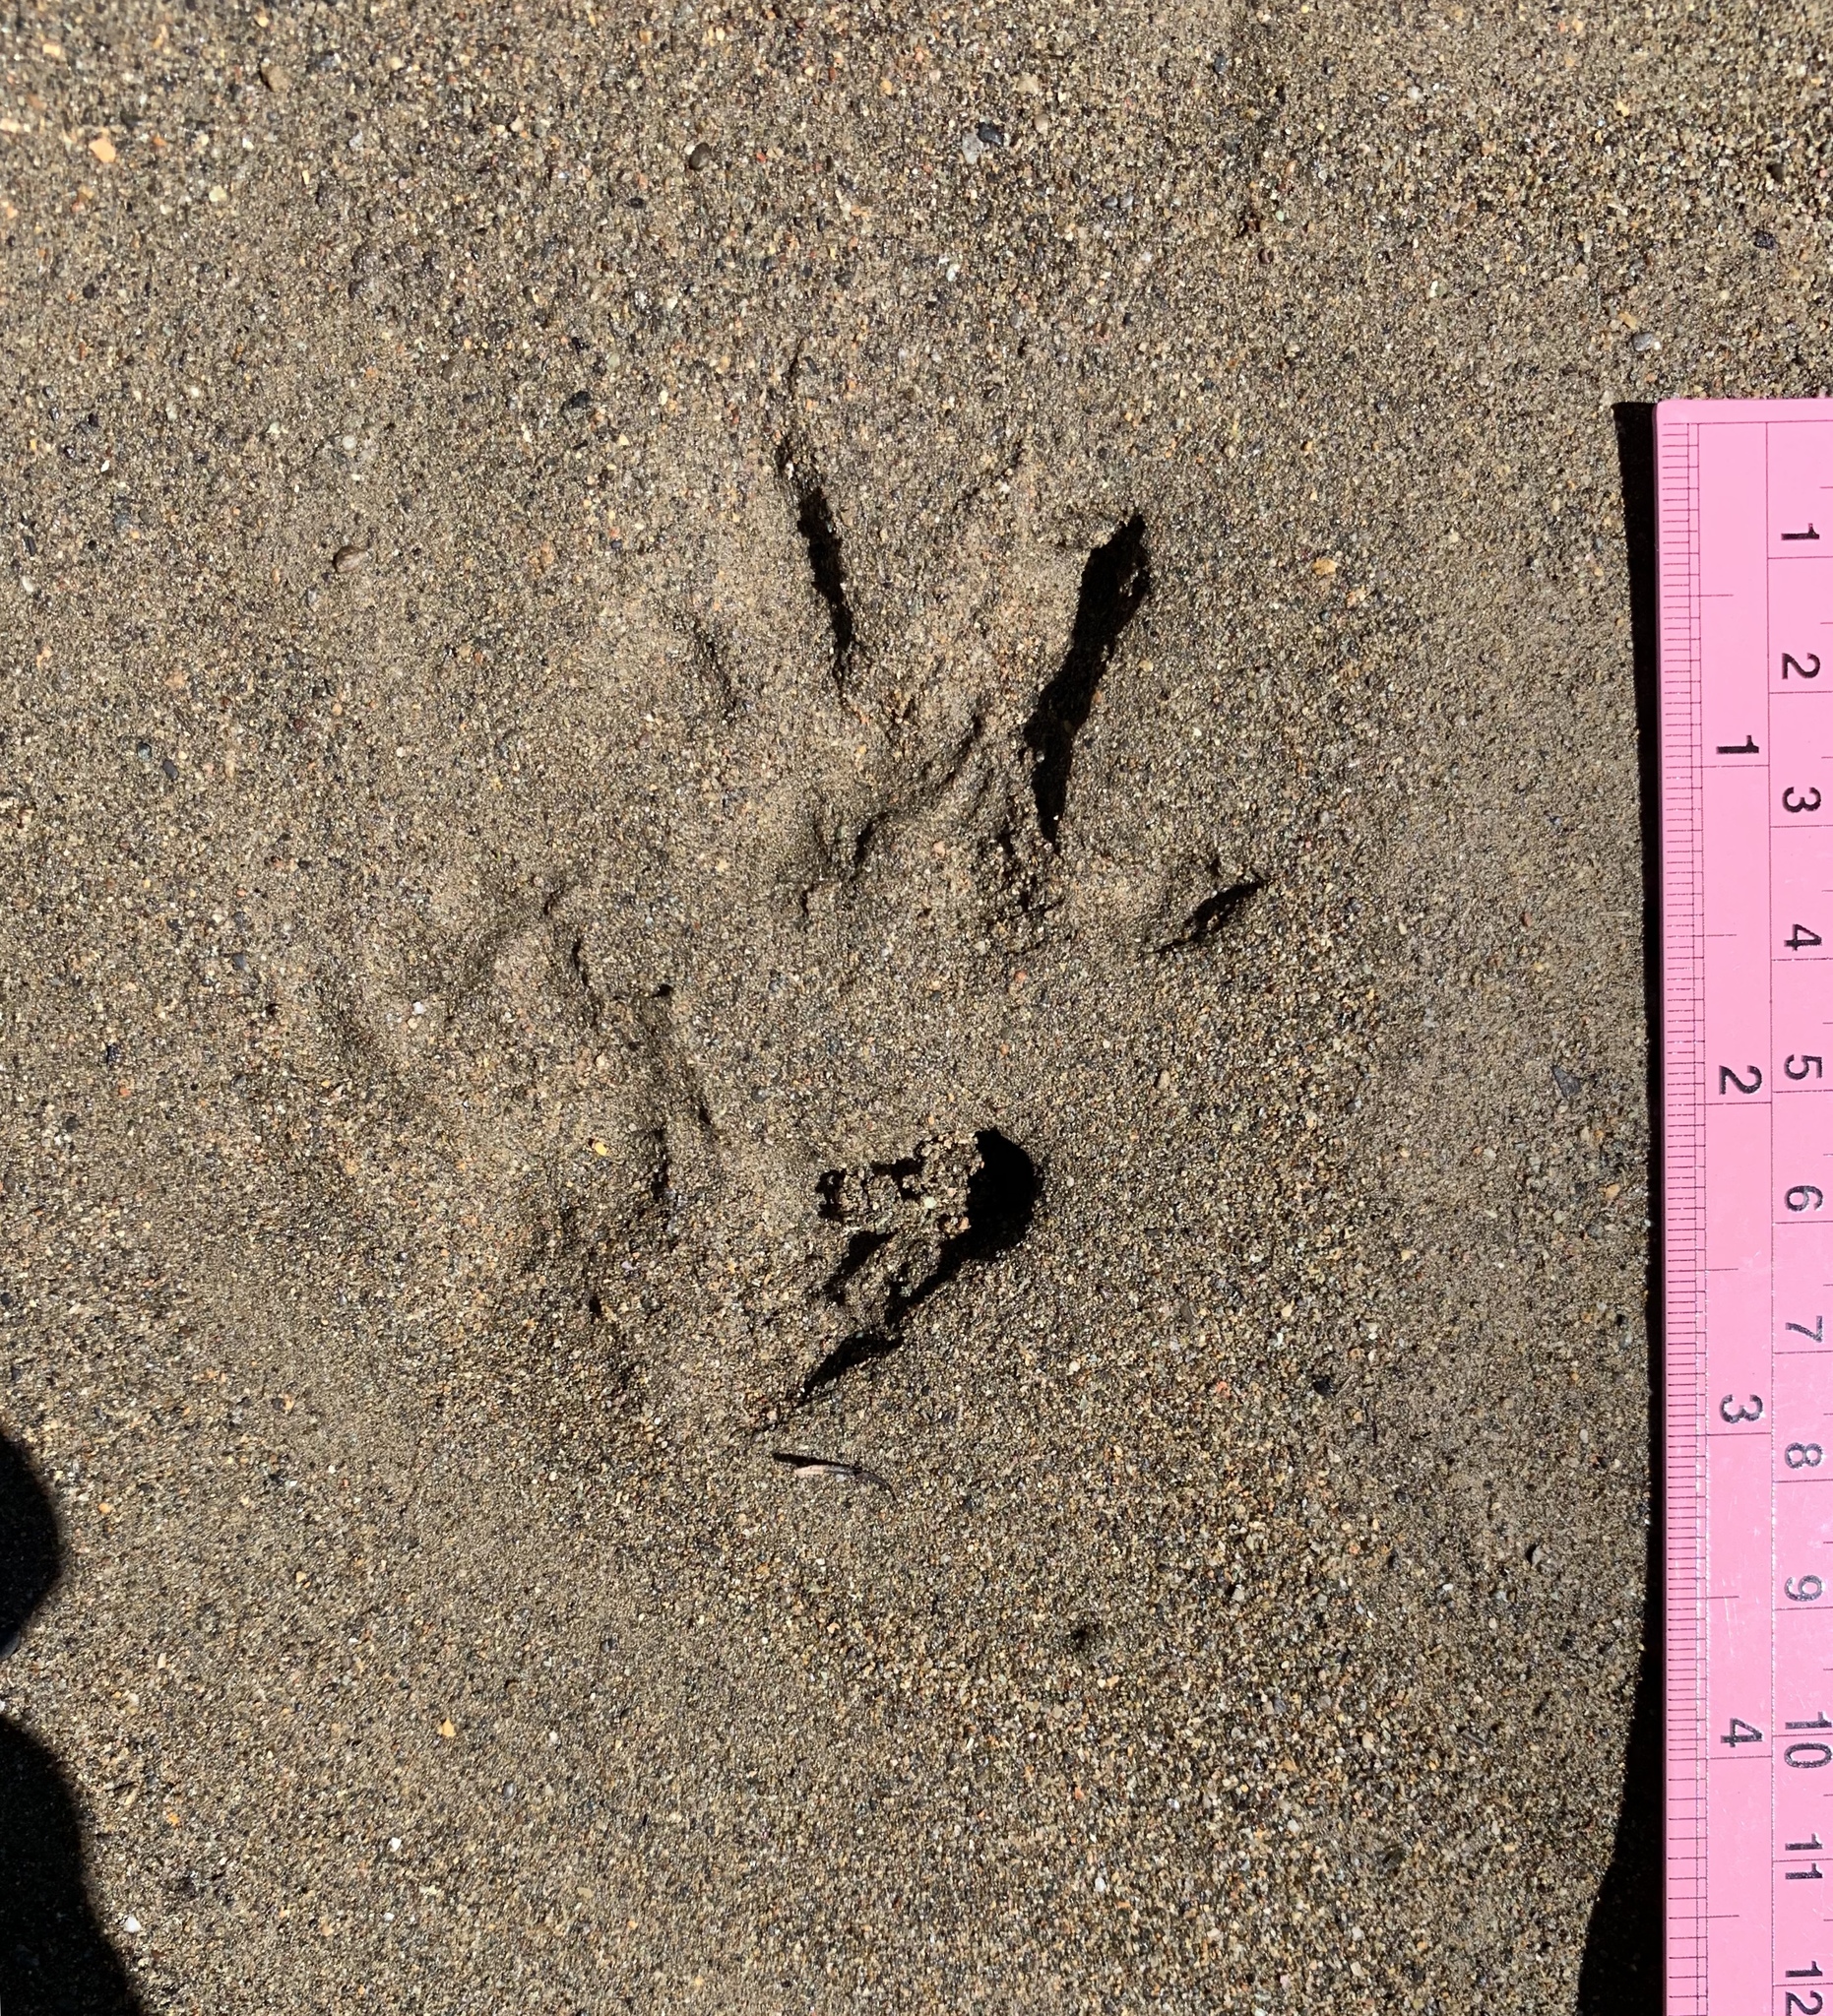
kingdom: Animalia
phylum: Chordata
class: Mammalia
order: Didelphimorphia
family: Didelphidae
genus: Didelphis
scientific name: Didelphis virginiana
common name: Virginia opossum
